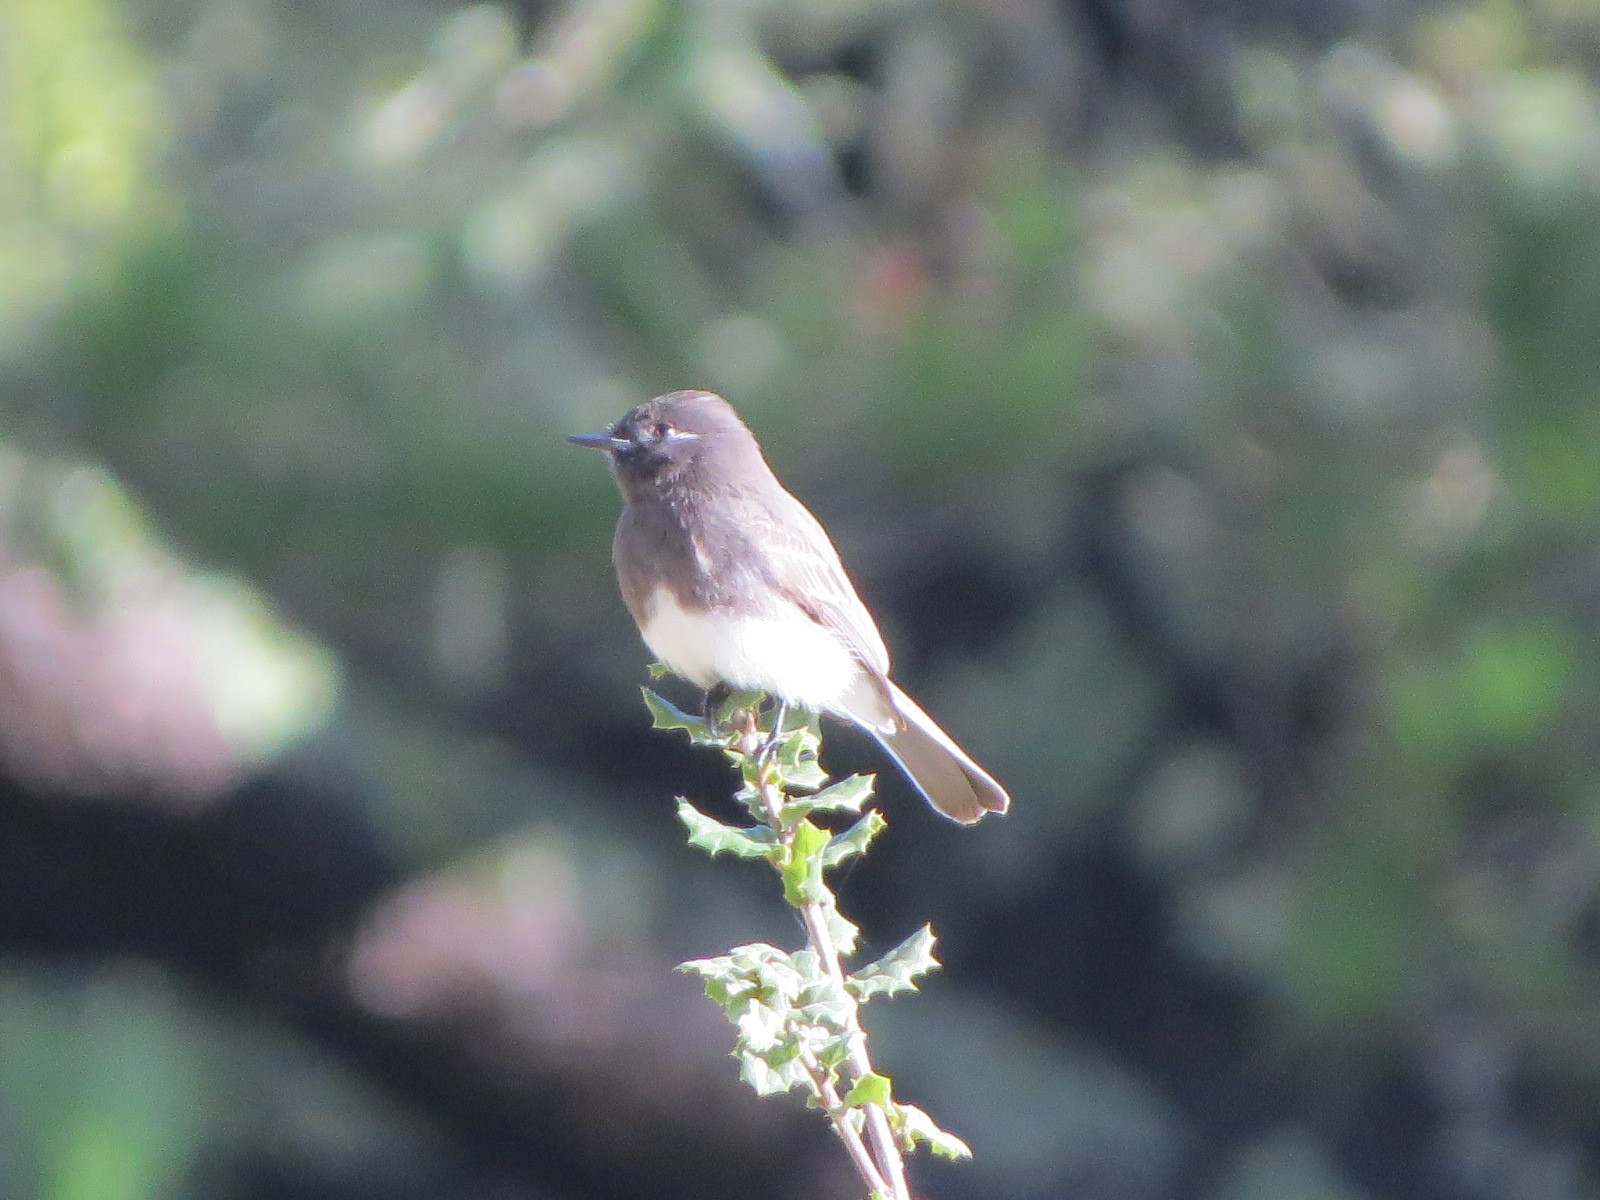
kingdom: Animalia
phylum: Chordata
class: Aves
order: Passeriformes
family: Tyrannidae
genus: Sayornis
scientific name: Sayornis nigricans
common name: Black phoebe
